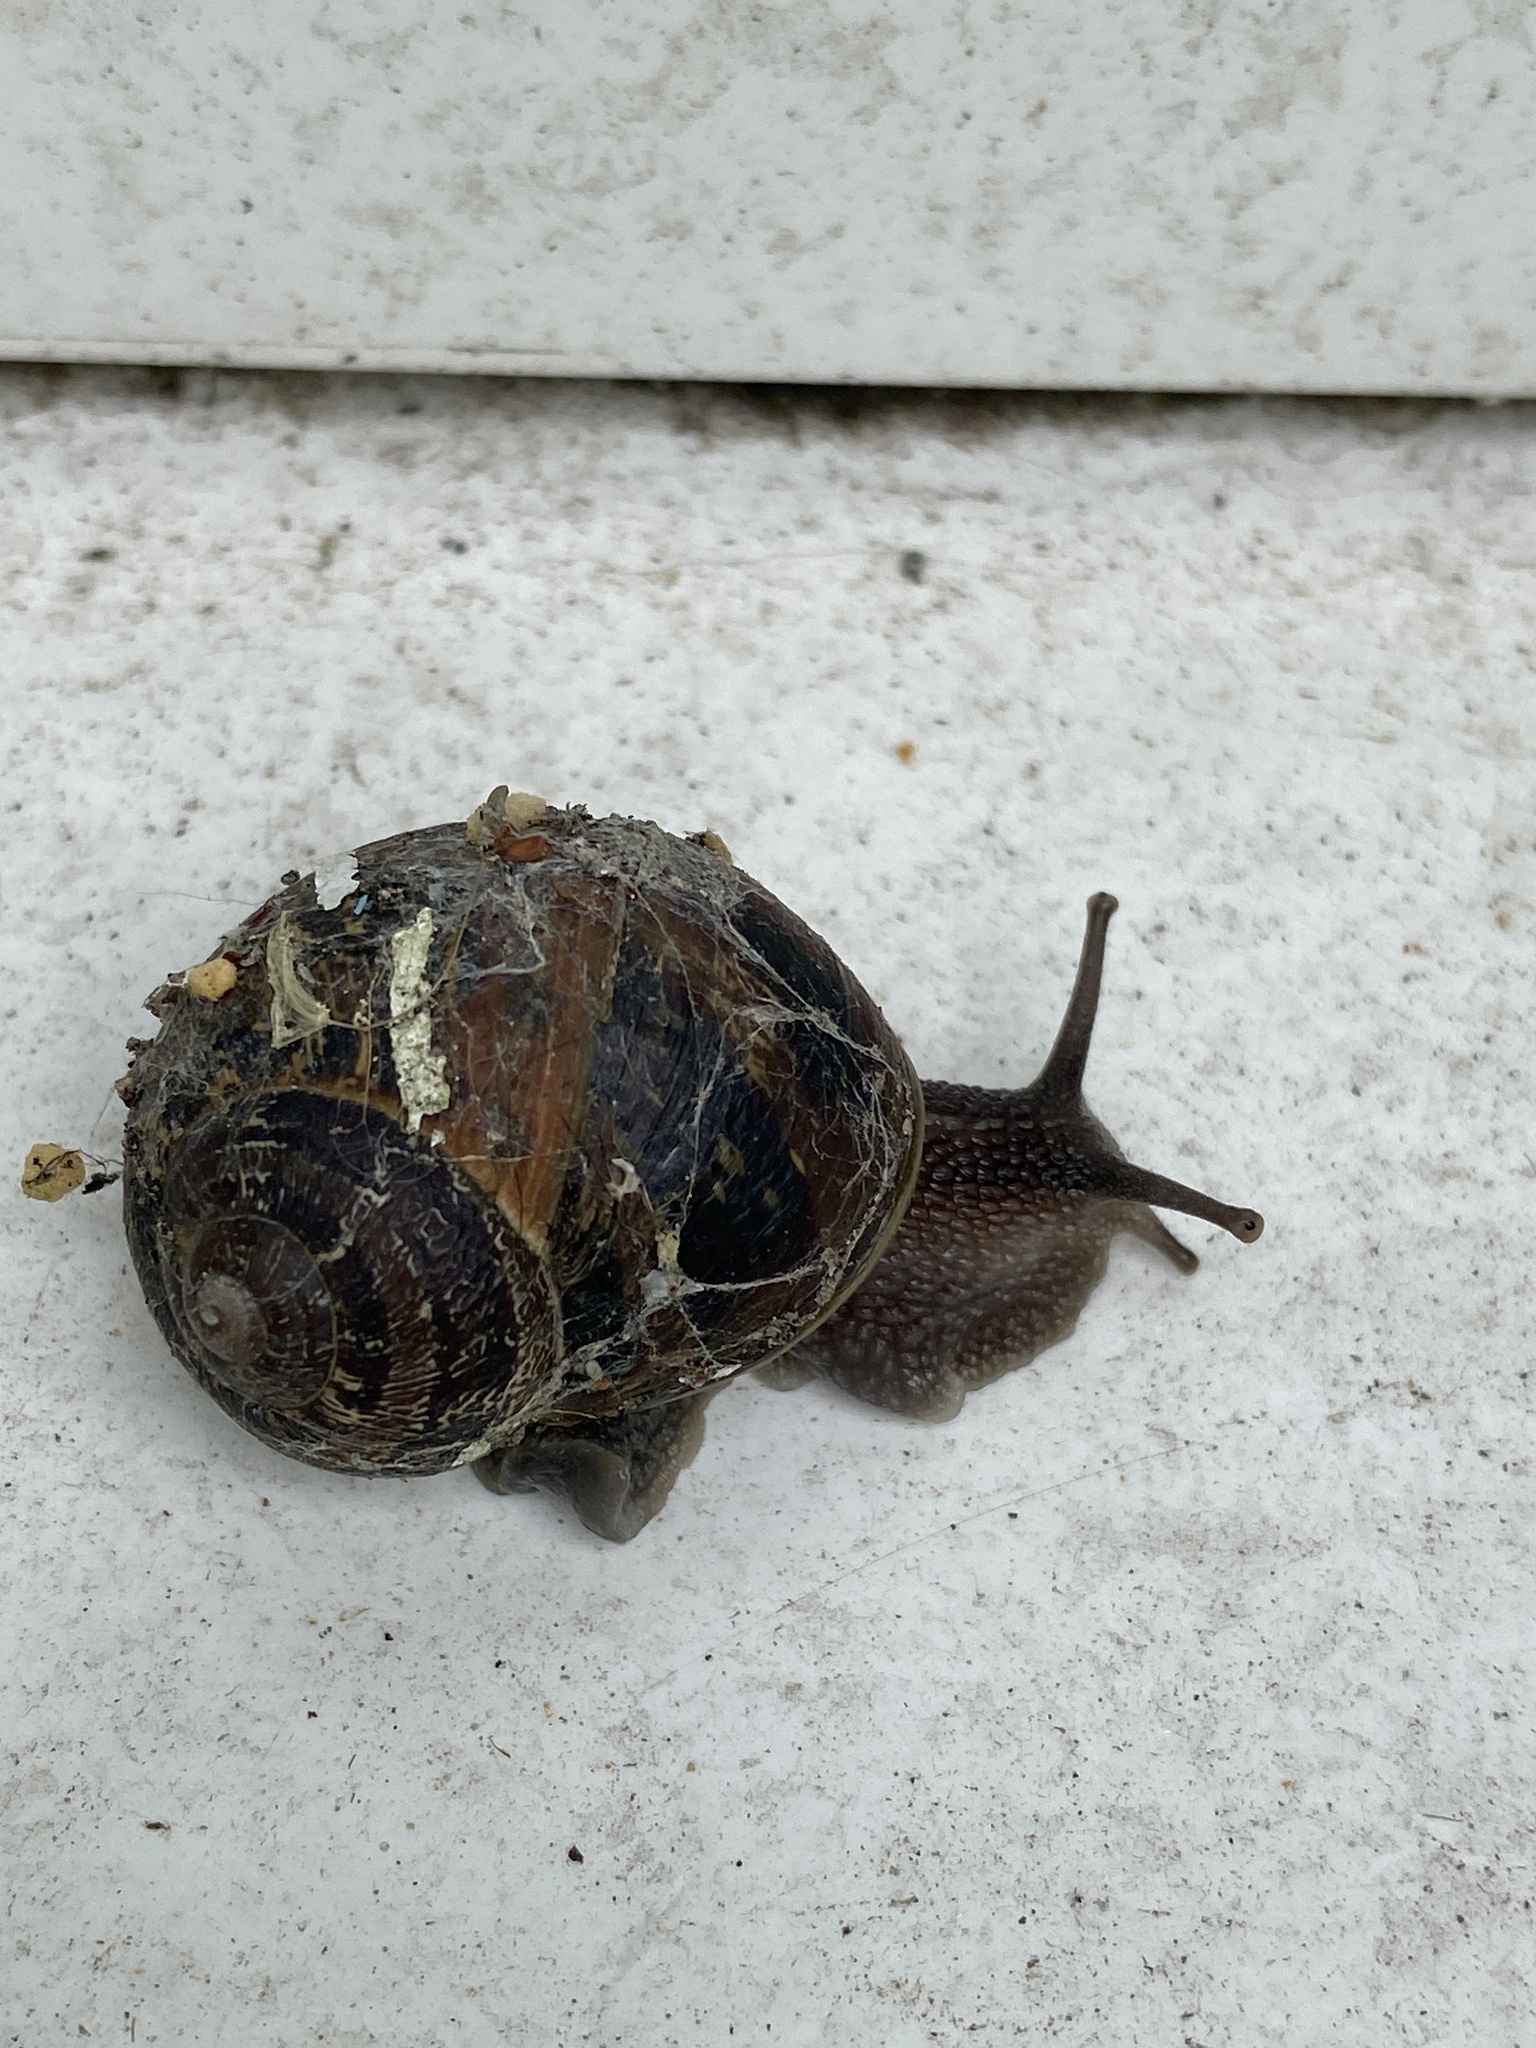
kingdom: Animalia
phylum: Mollusca
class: Gastropoda
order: Stylommatophora
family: Helicidae
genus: Cornu
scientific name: Cornu aspersum
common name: Brown garden snail
